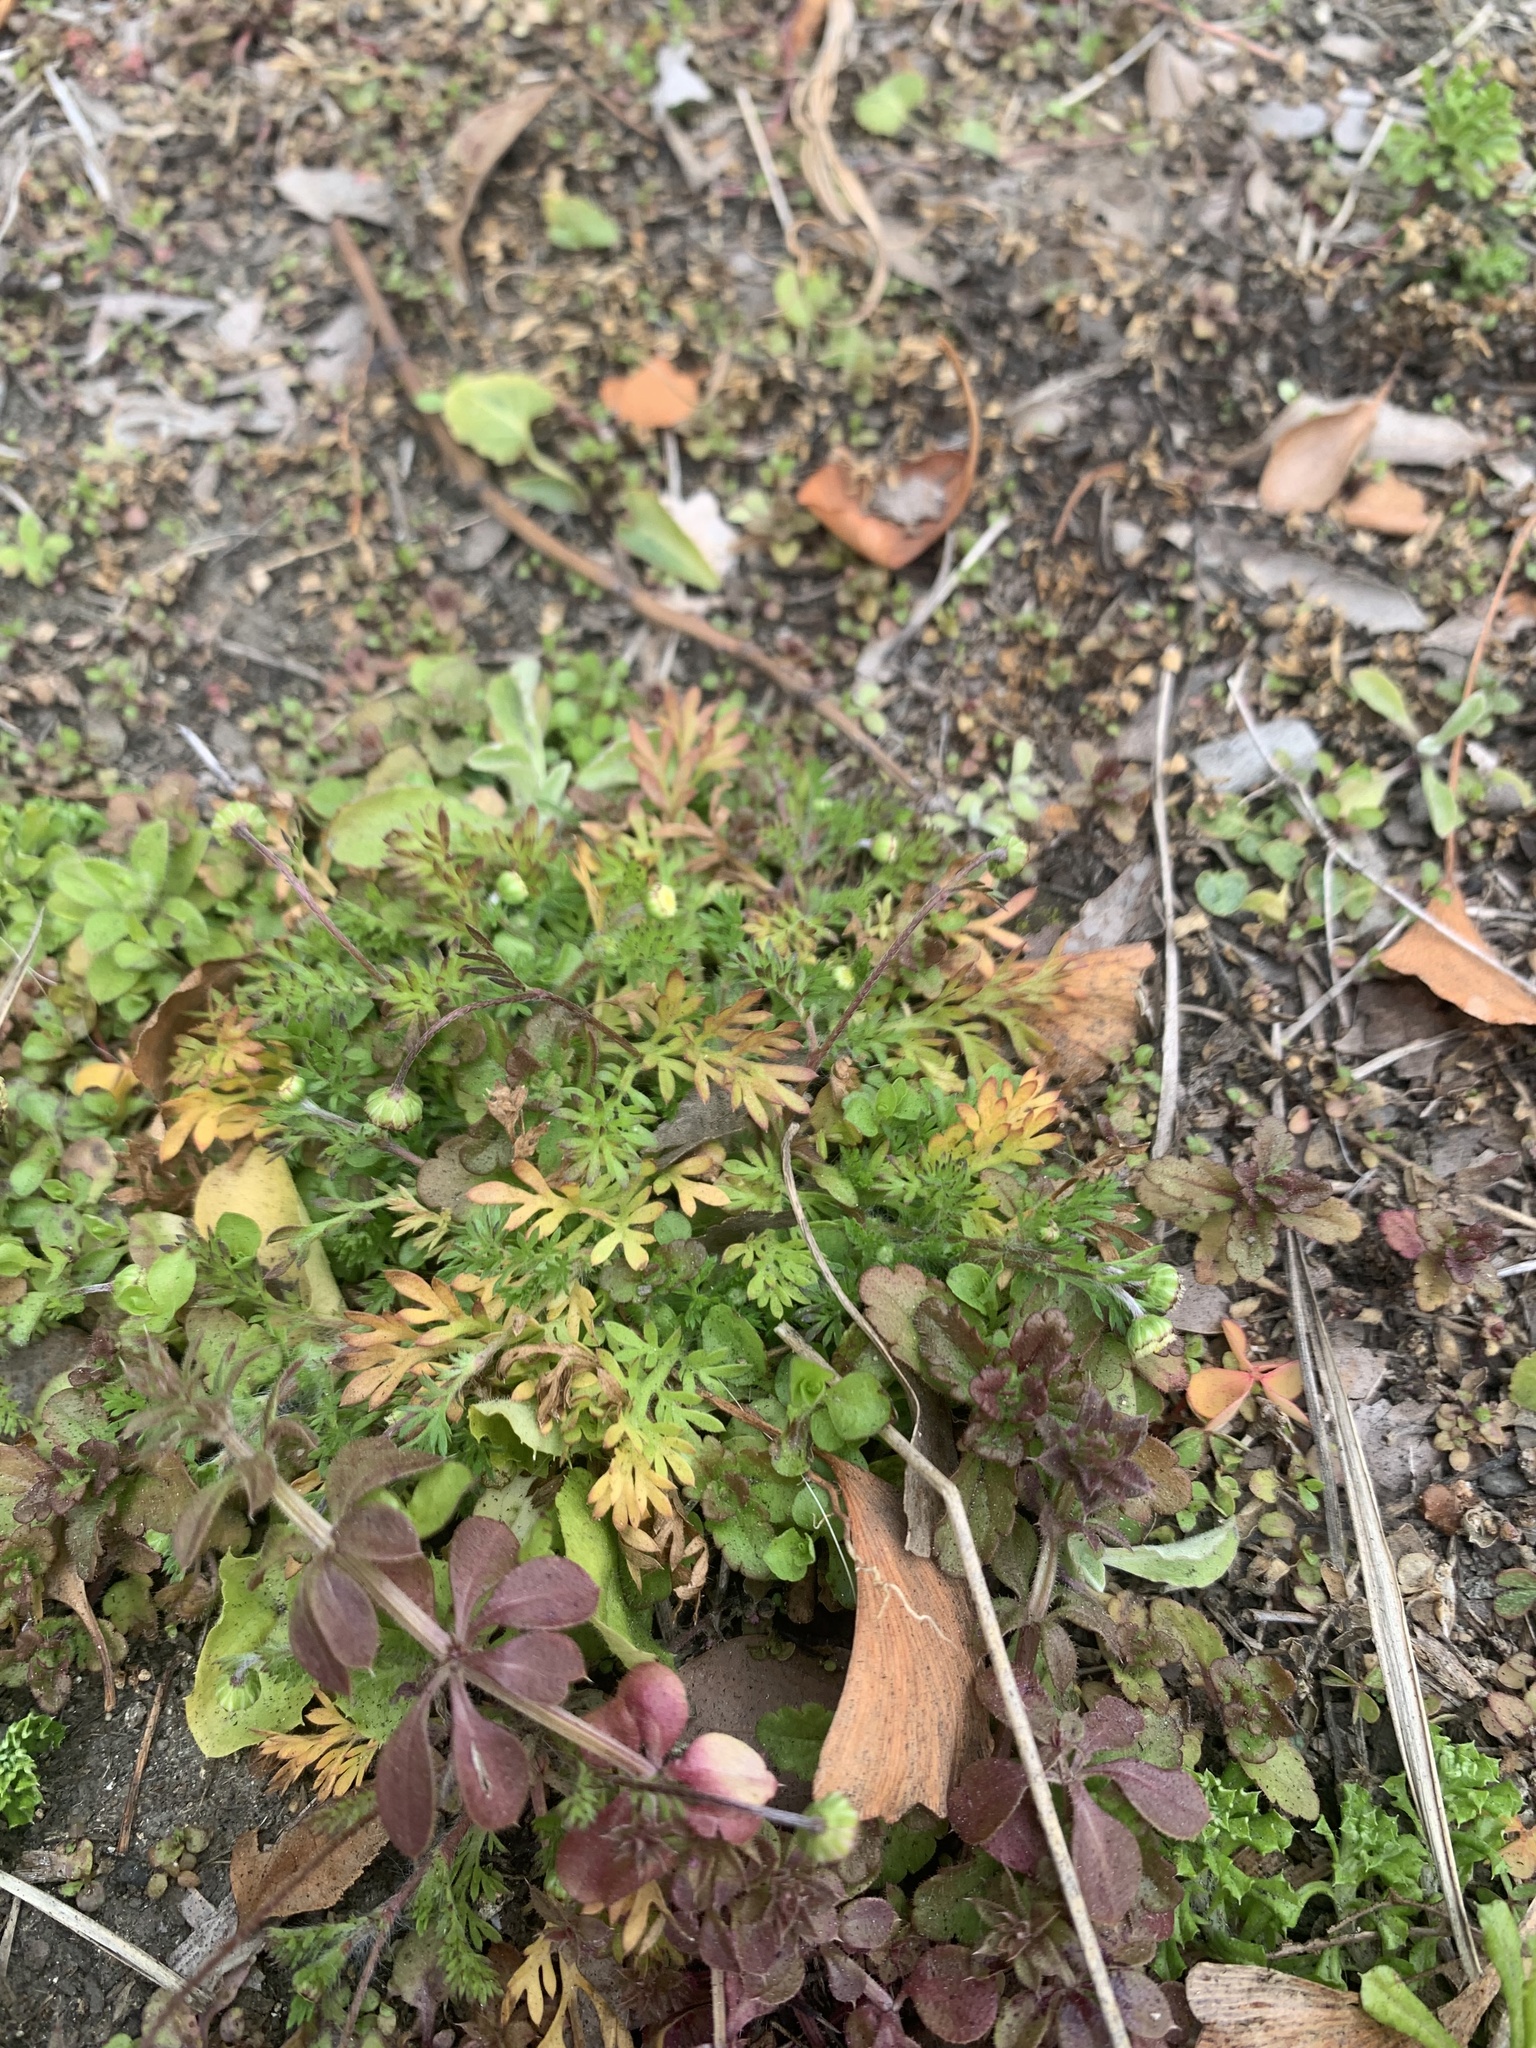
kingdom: Plantae
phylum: Tracheophyta
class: Magnoliopsida
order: Asterales
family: Asteraceae
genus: Cotula
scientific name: Cotula australis
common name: Australian waterbuttons
